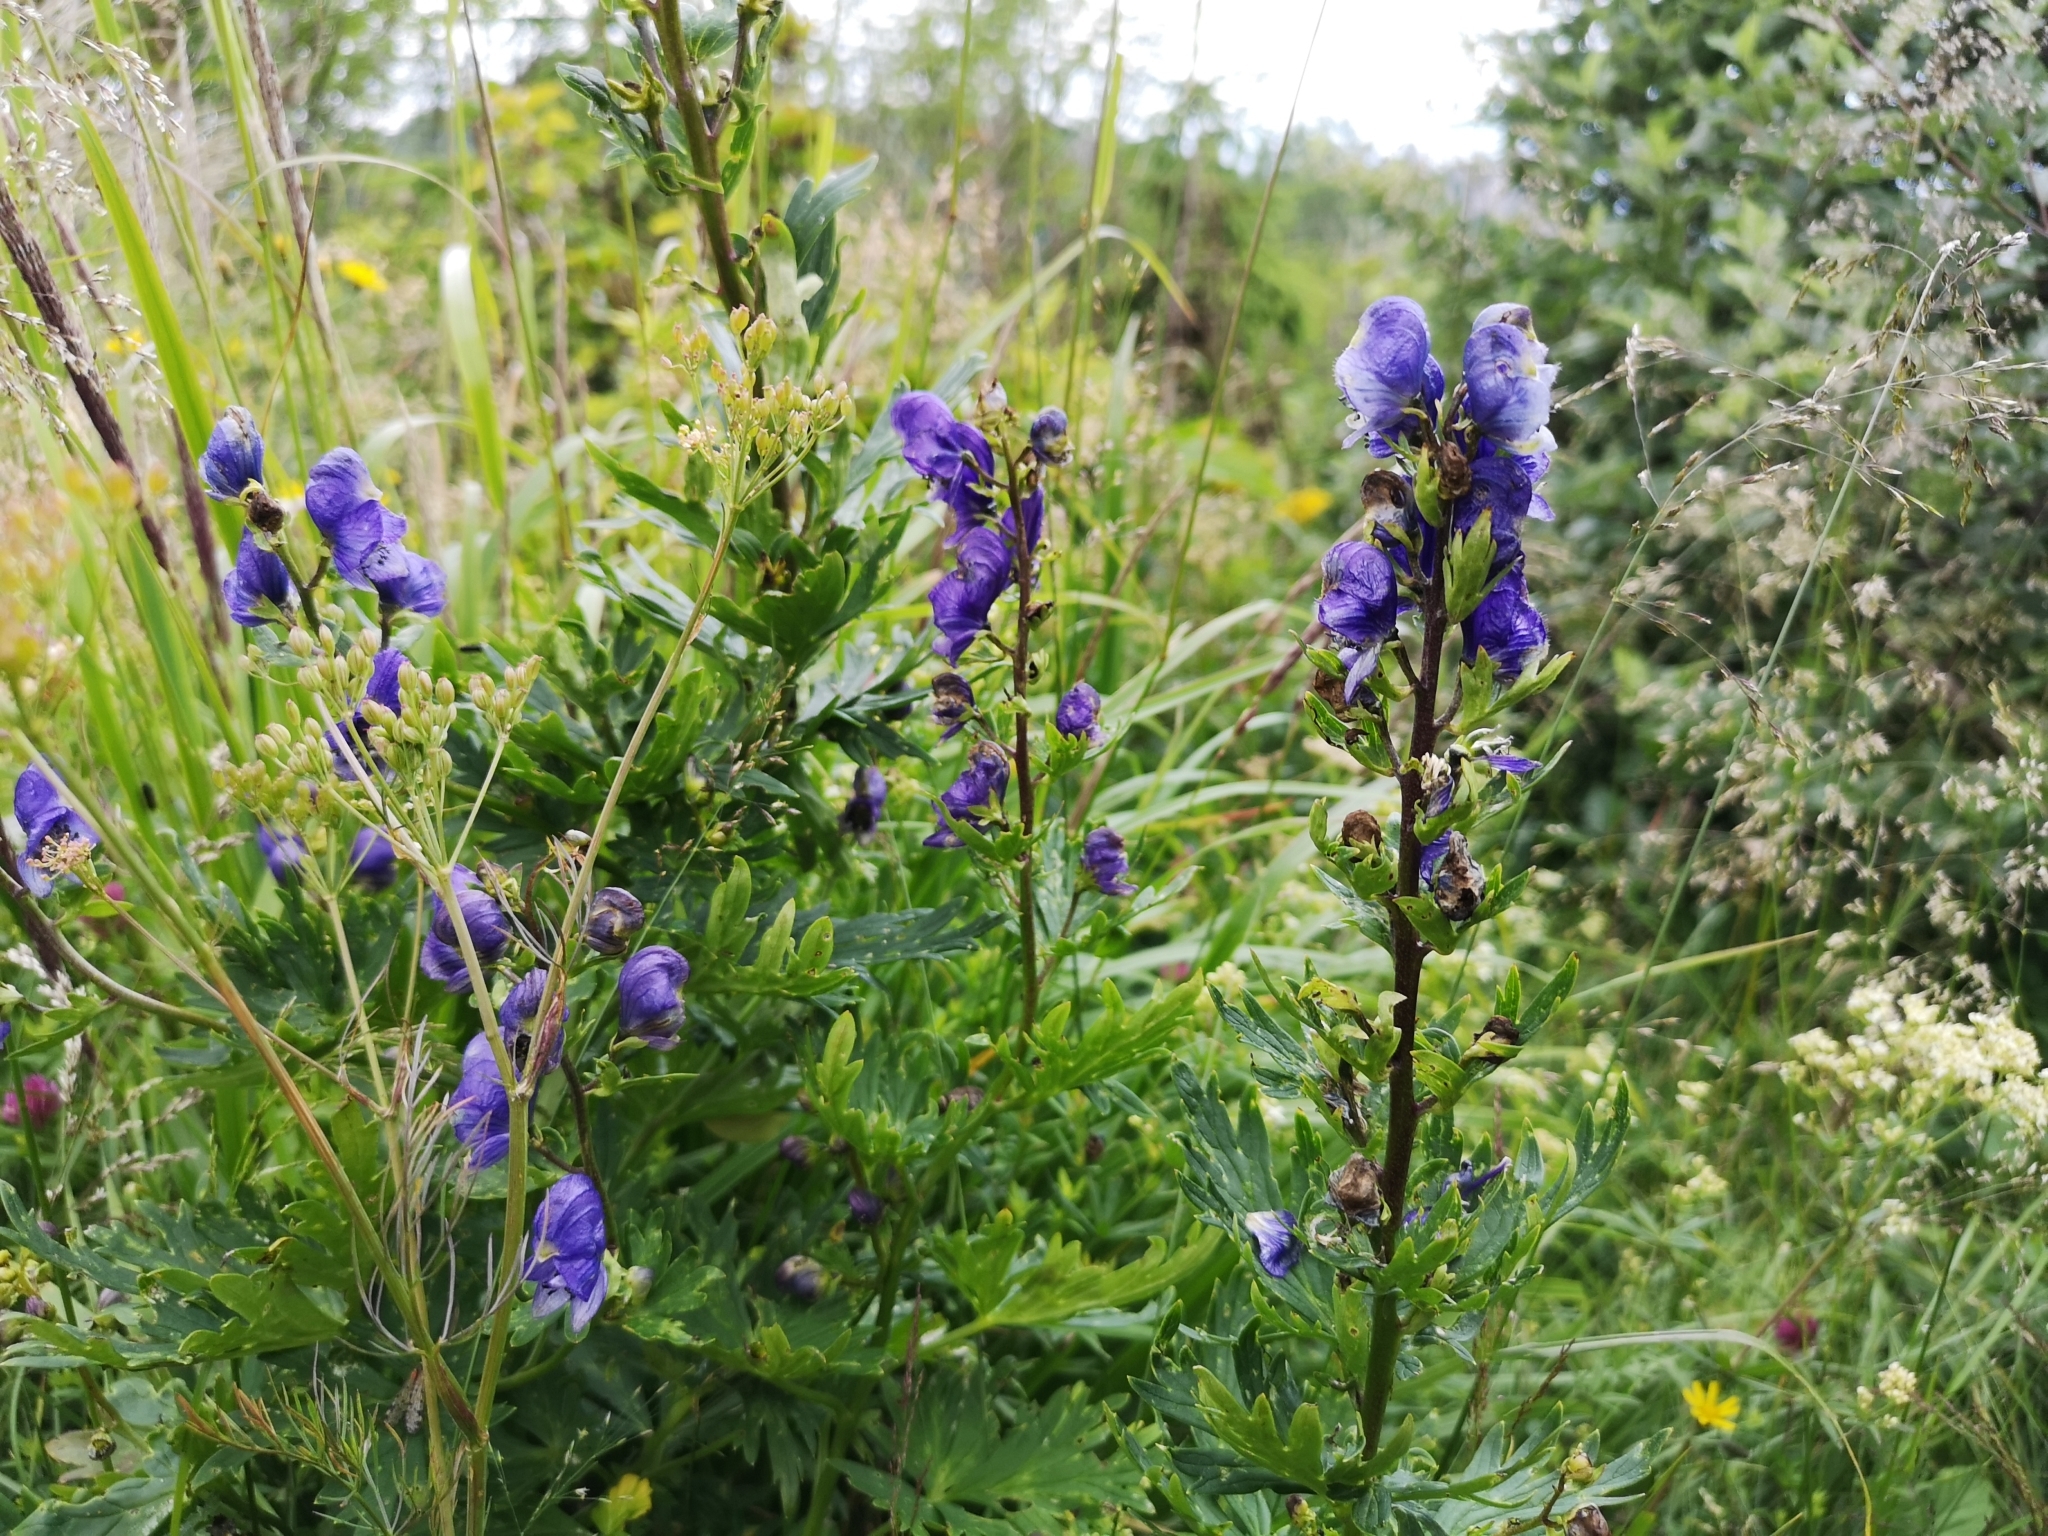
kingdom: Plantae
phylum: Tracheophyta
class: Magnoliopsida
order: Ranunculales
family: Ranunculaceae
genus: Aconitum
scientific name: Aconitum firmum
